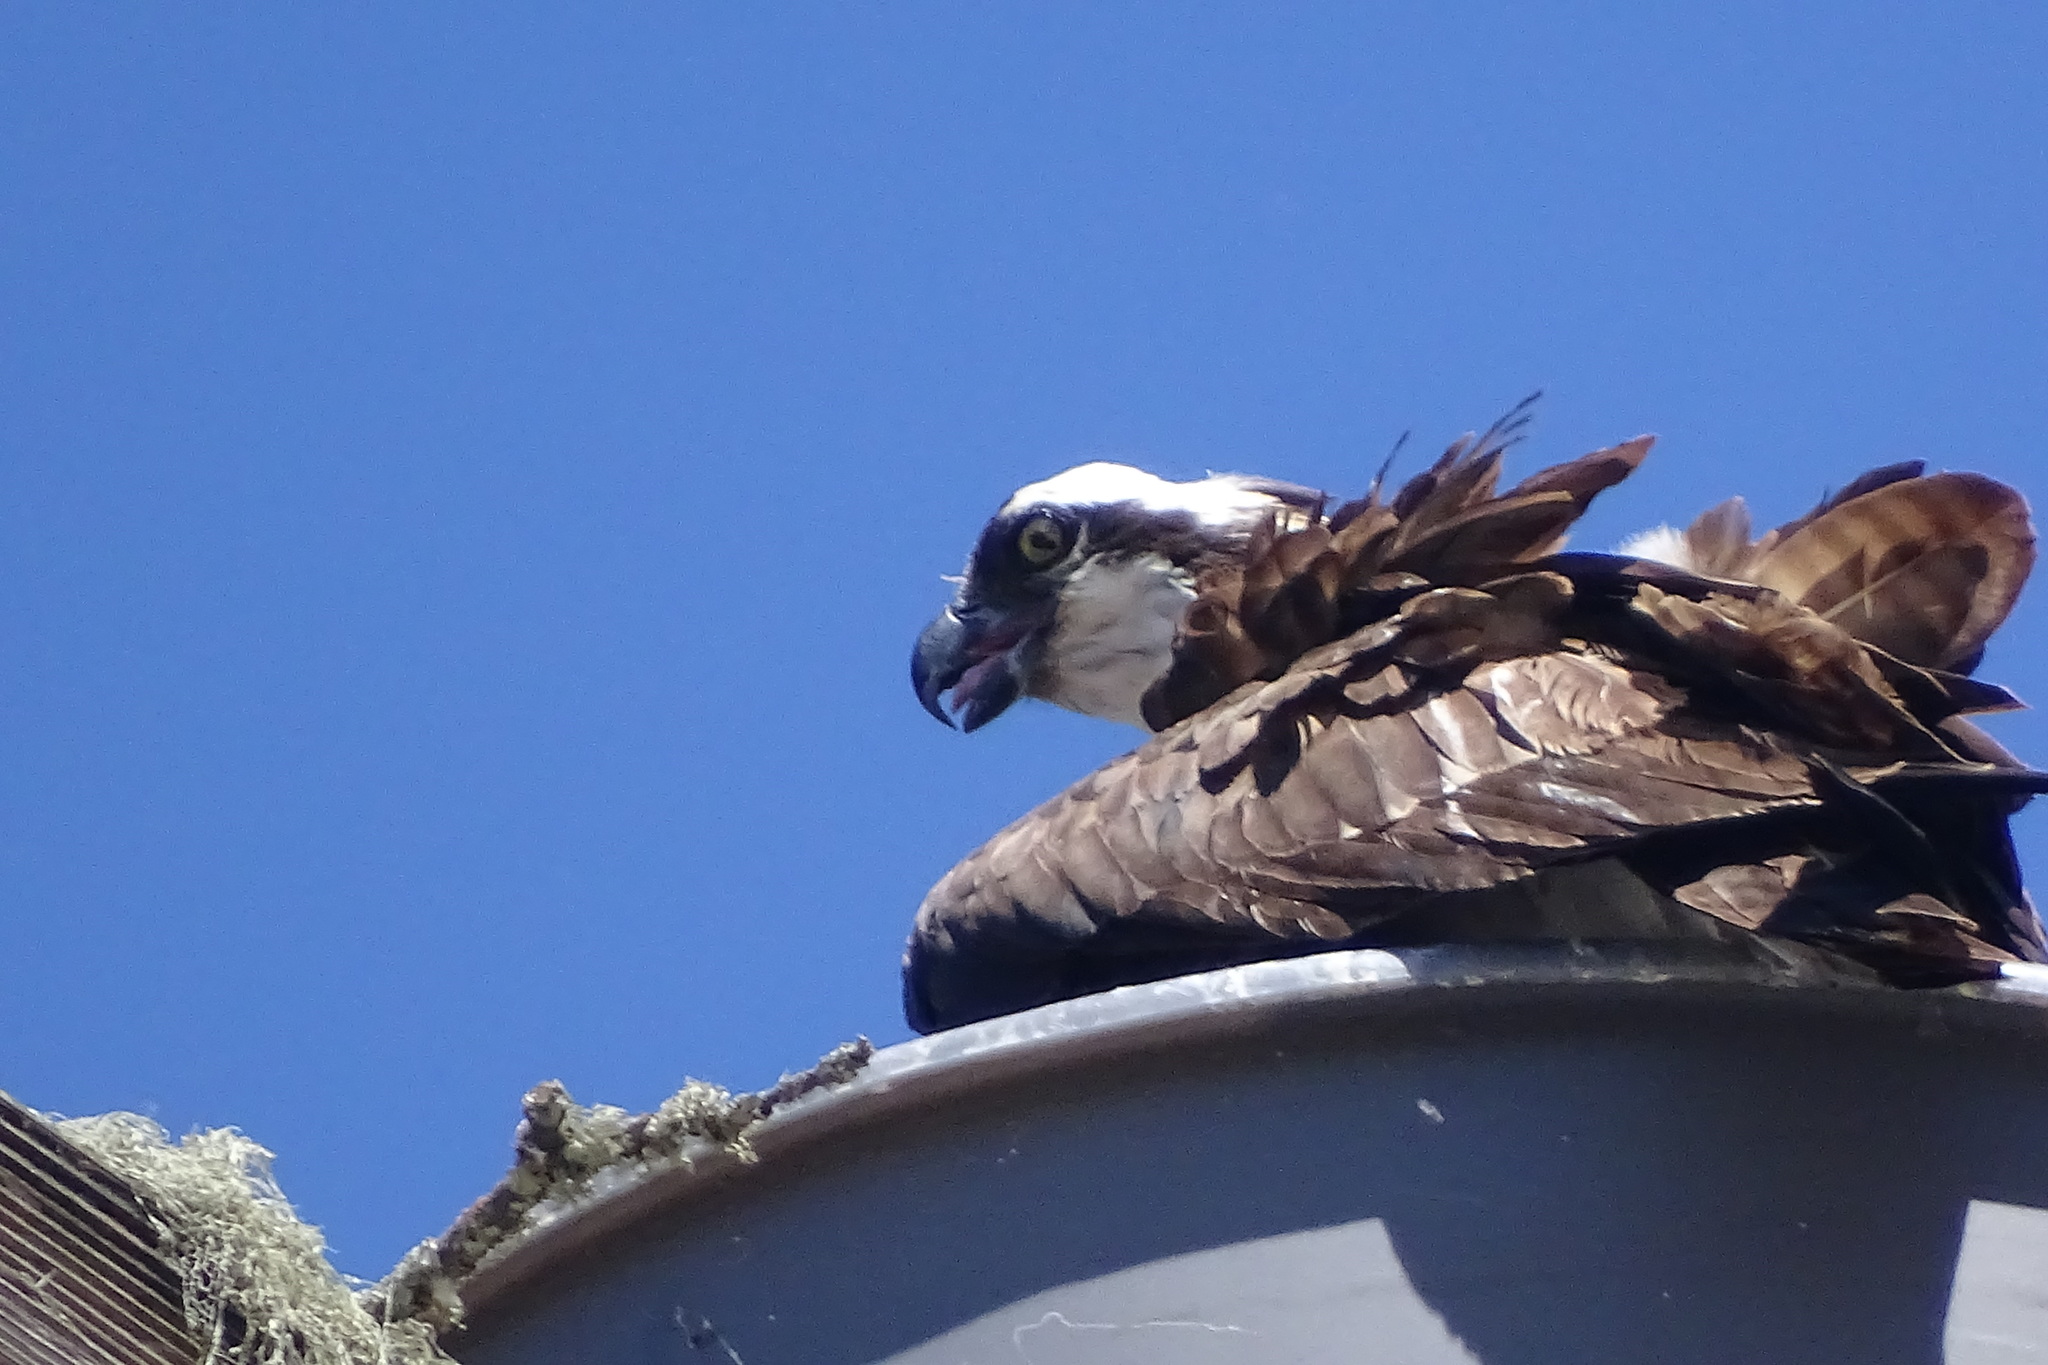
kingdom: Animalia
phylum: Chordata
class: Aves
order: Accipitriformes
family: Pandionidae
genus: Pandion
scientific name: Pandion haliaetus
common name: Osprey
